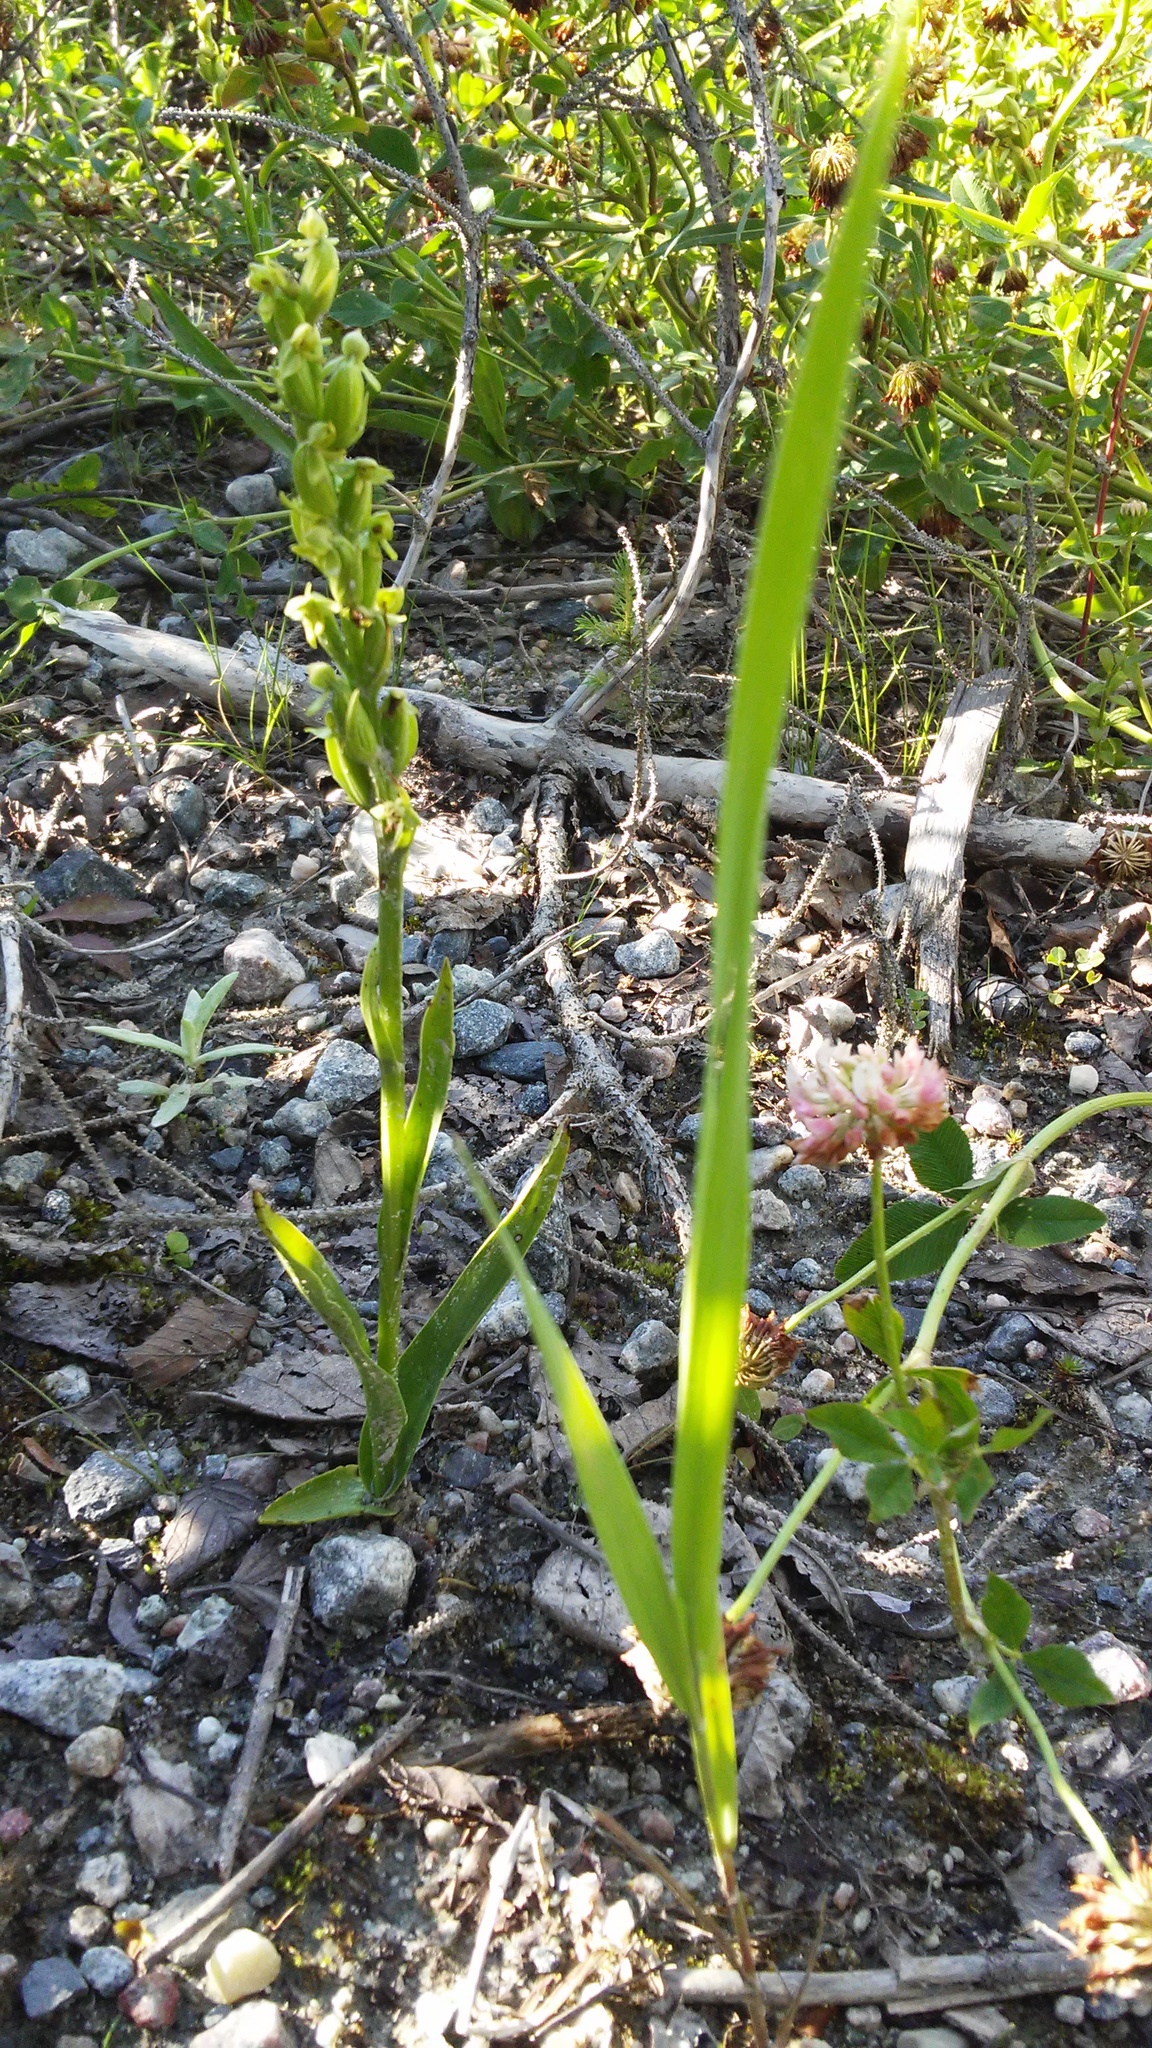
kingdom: Plantae
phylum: Tracheophyta
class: Liliopsida
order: Asparagales
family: Orchidaceae
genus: Platanthera
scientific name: Platanthera aquilonis
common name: Northern green orchid
